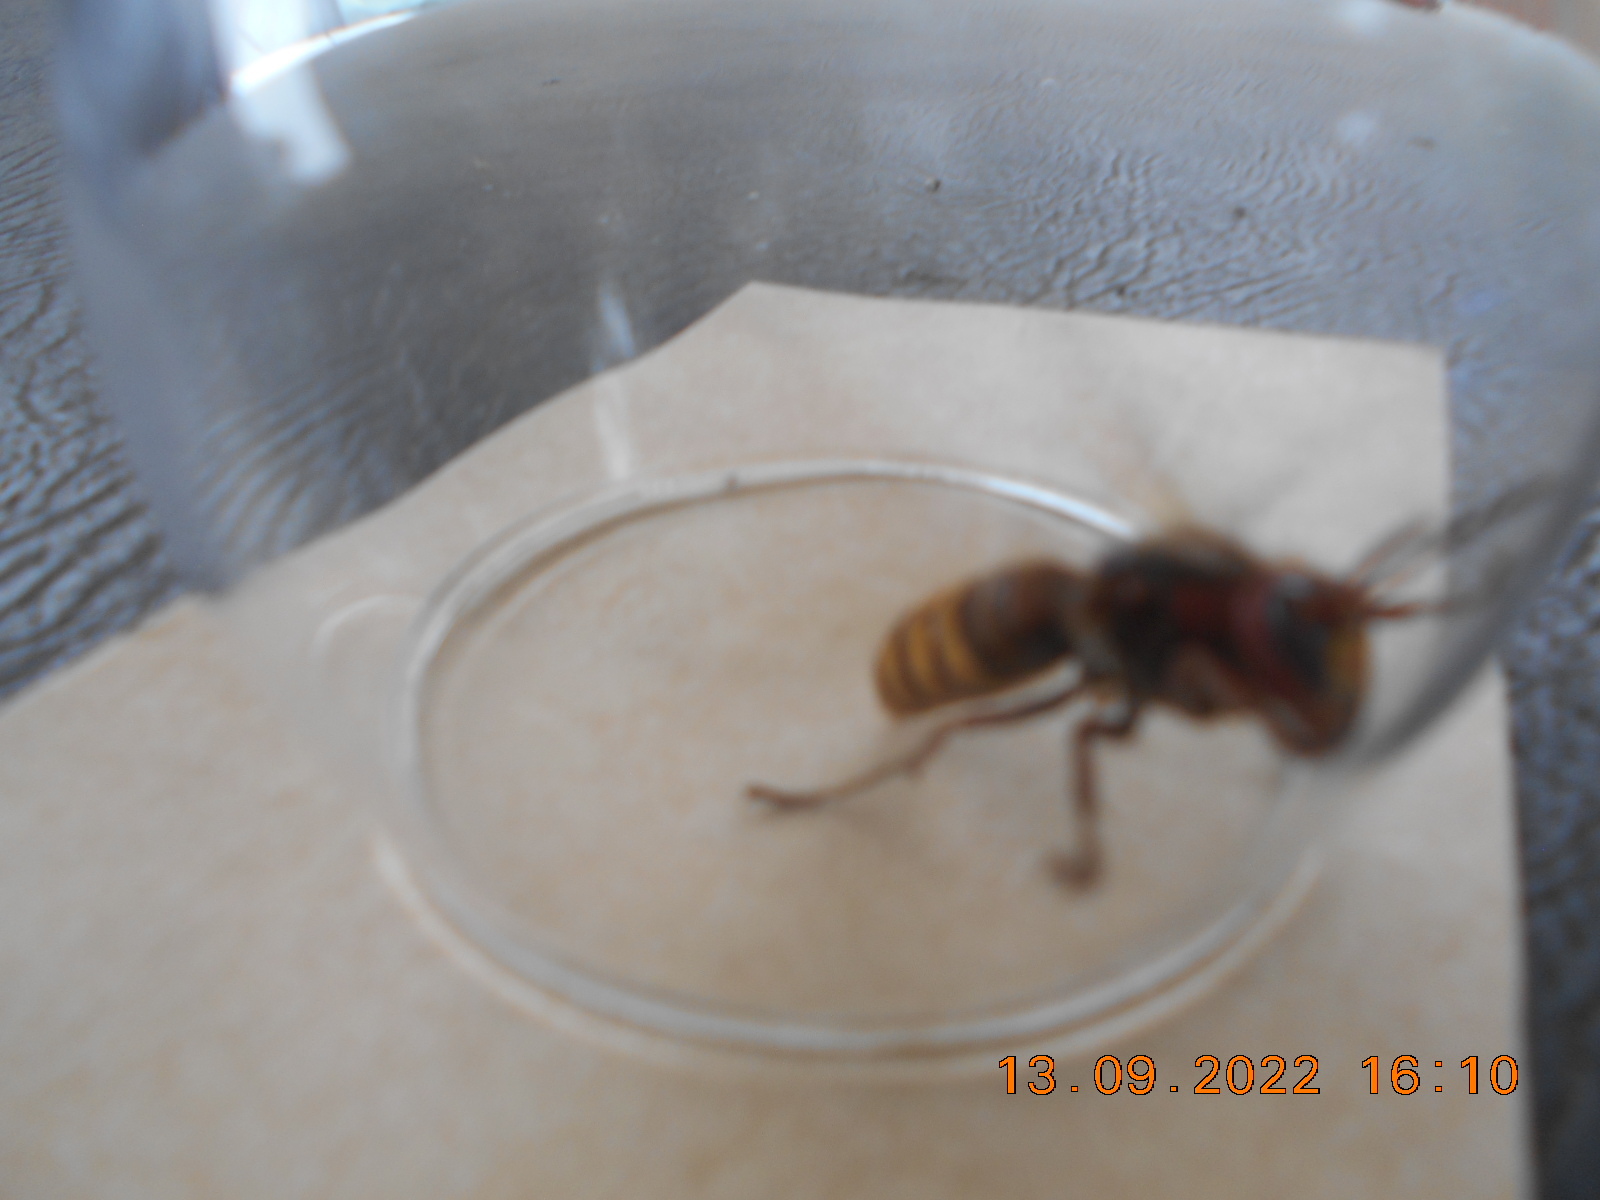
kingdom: Animalia
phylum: Arthropoda
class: Insecta
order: Hymenoptera
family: Vespidae
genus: Vespa
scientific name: Vespa crabro
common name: Hornet
